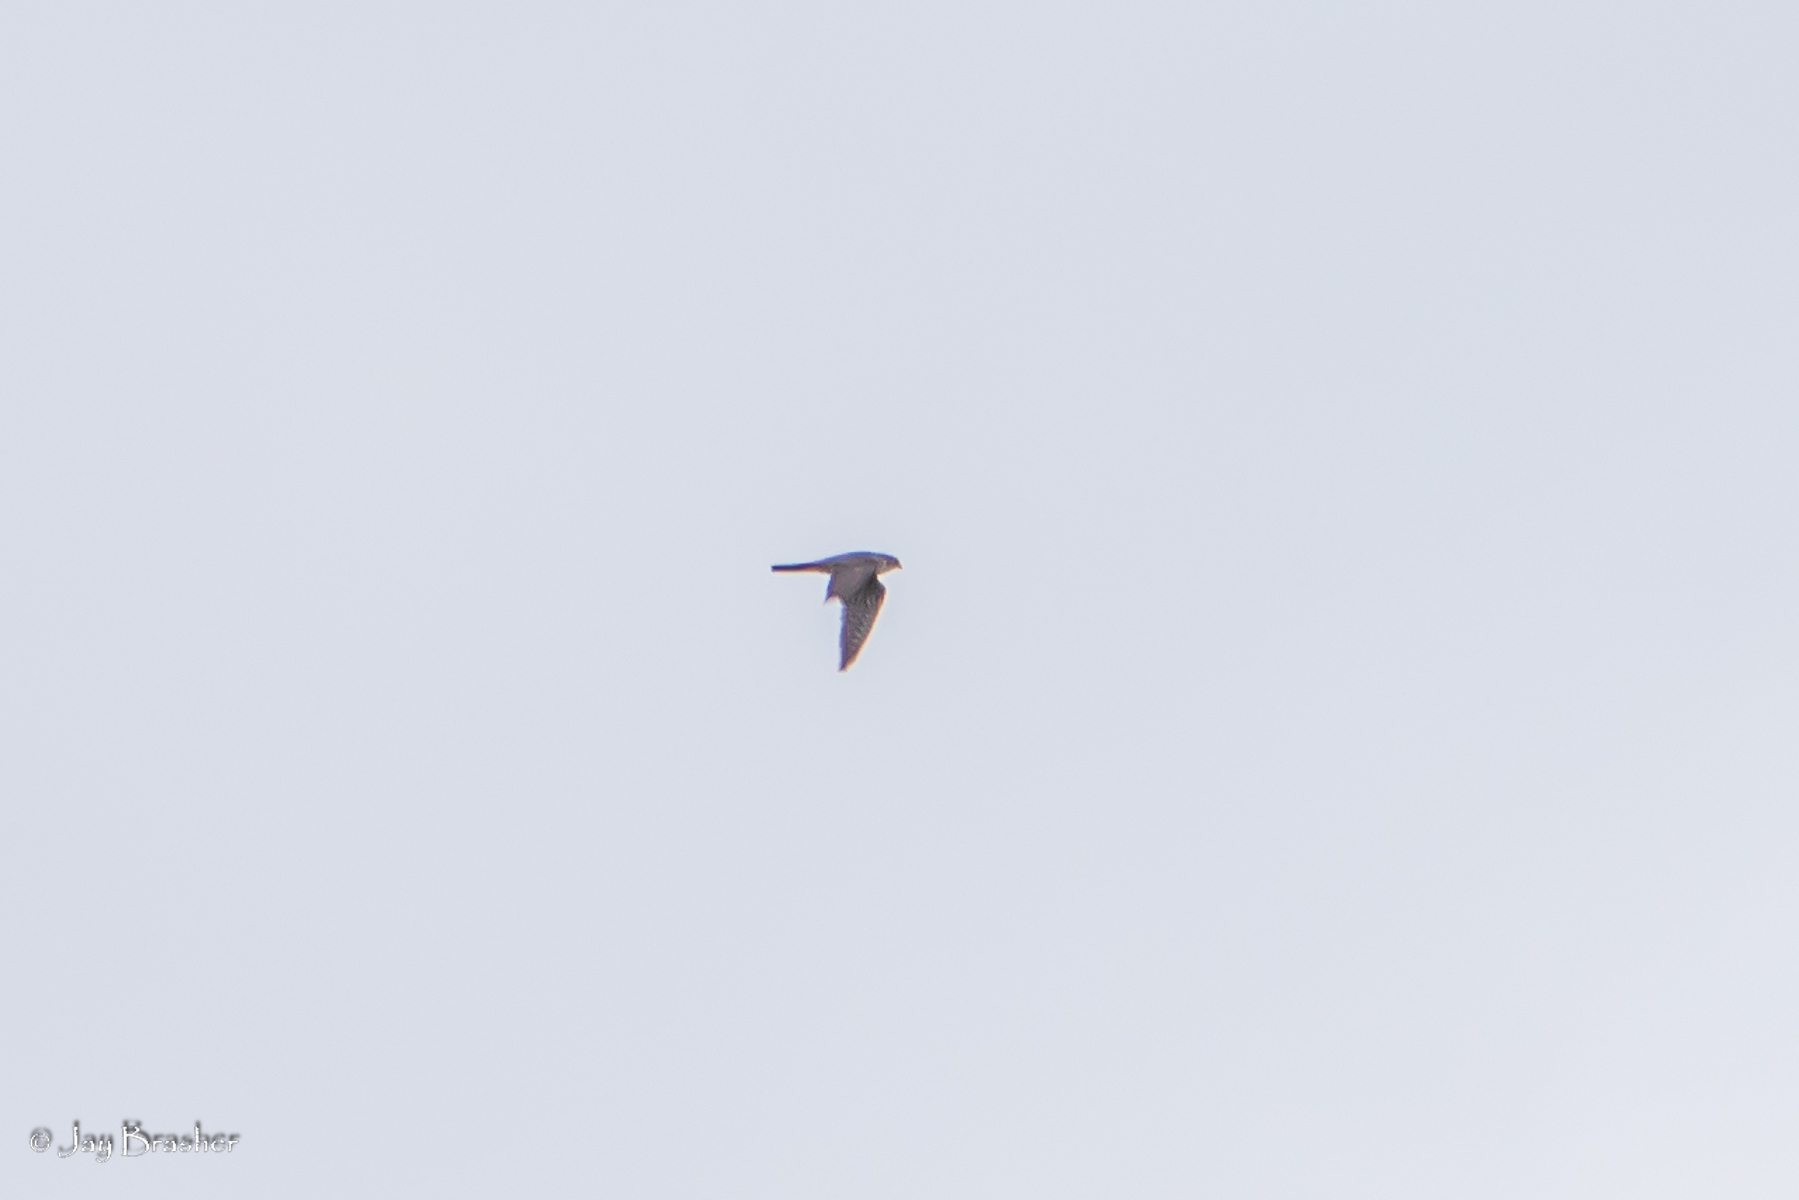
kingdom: Animalia
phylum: Chordata
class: Aves
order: Falconiformes
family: Falconidae
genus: Falco
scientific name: Falco peregrinus
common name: Peregrine falcon
